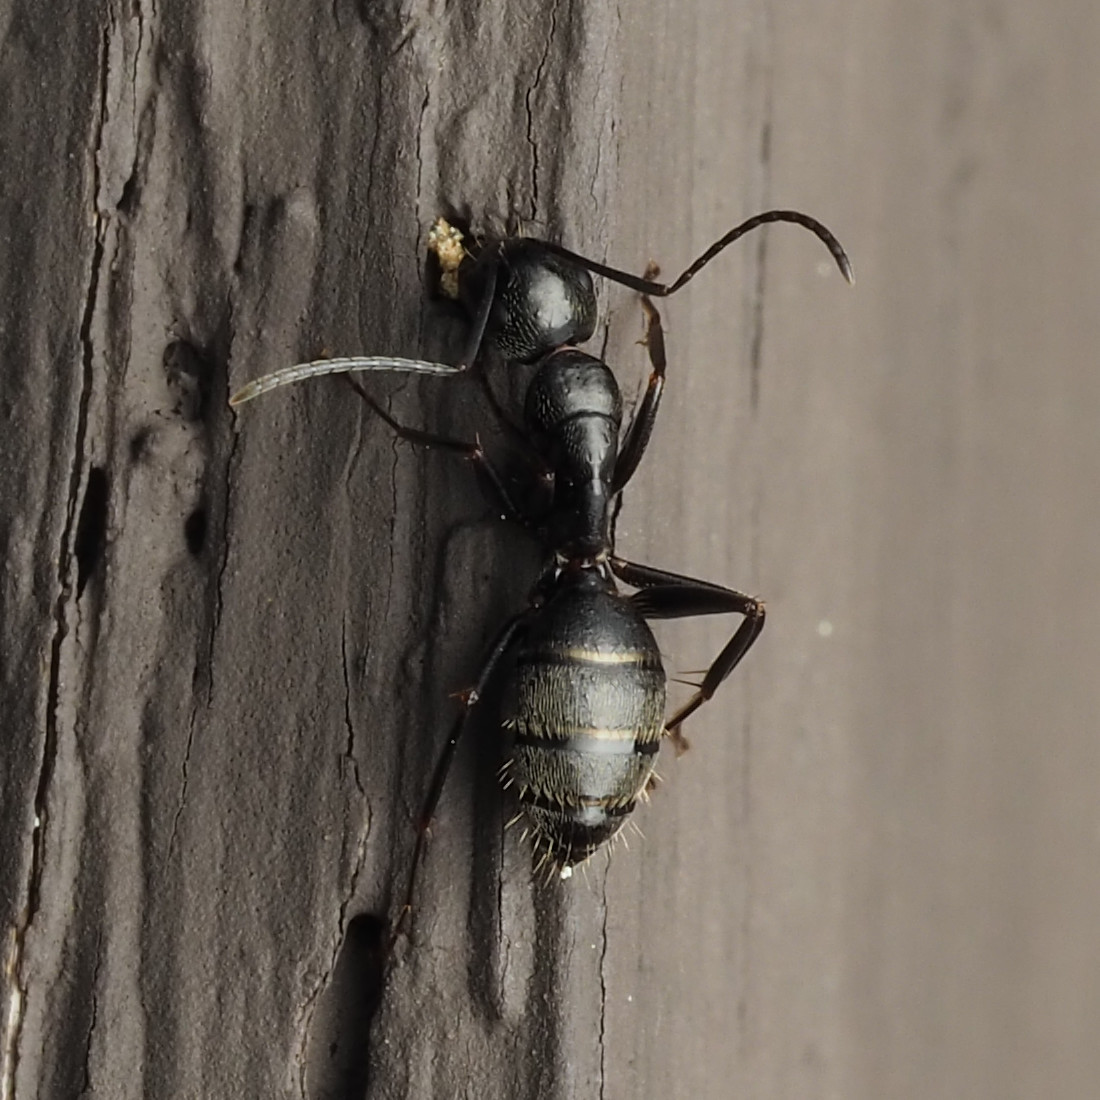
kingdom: Animalia
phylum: Arthropoda
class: Insecta
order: Hymenoptera
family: Formicidae
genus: Camponotus
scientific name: Camponotus pennsylvanicus
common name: Black carpenter ant
